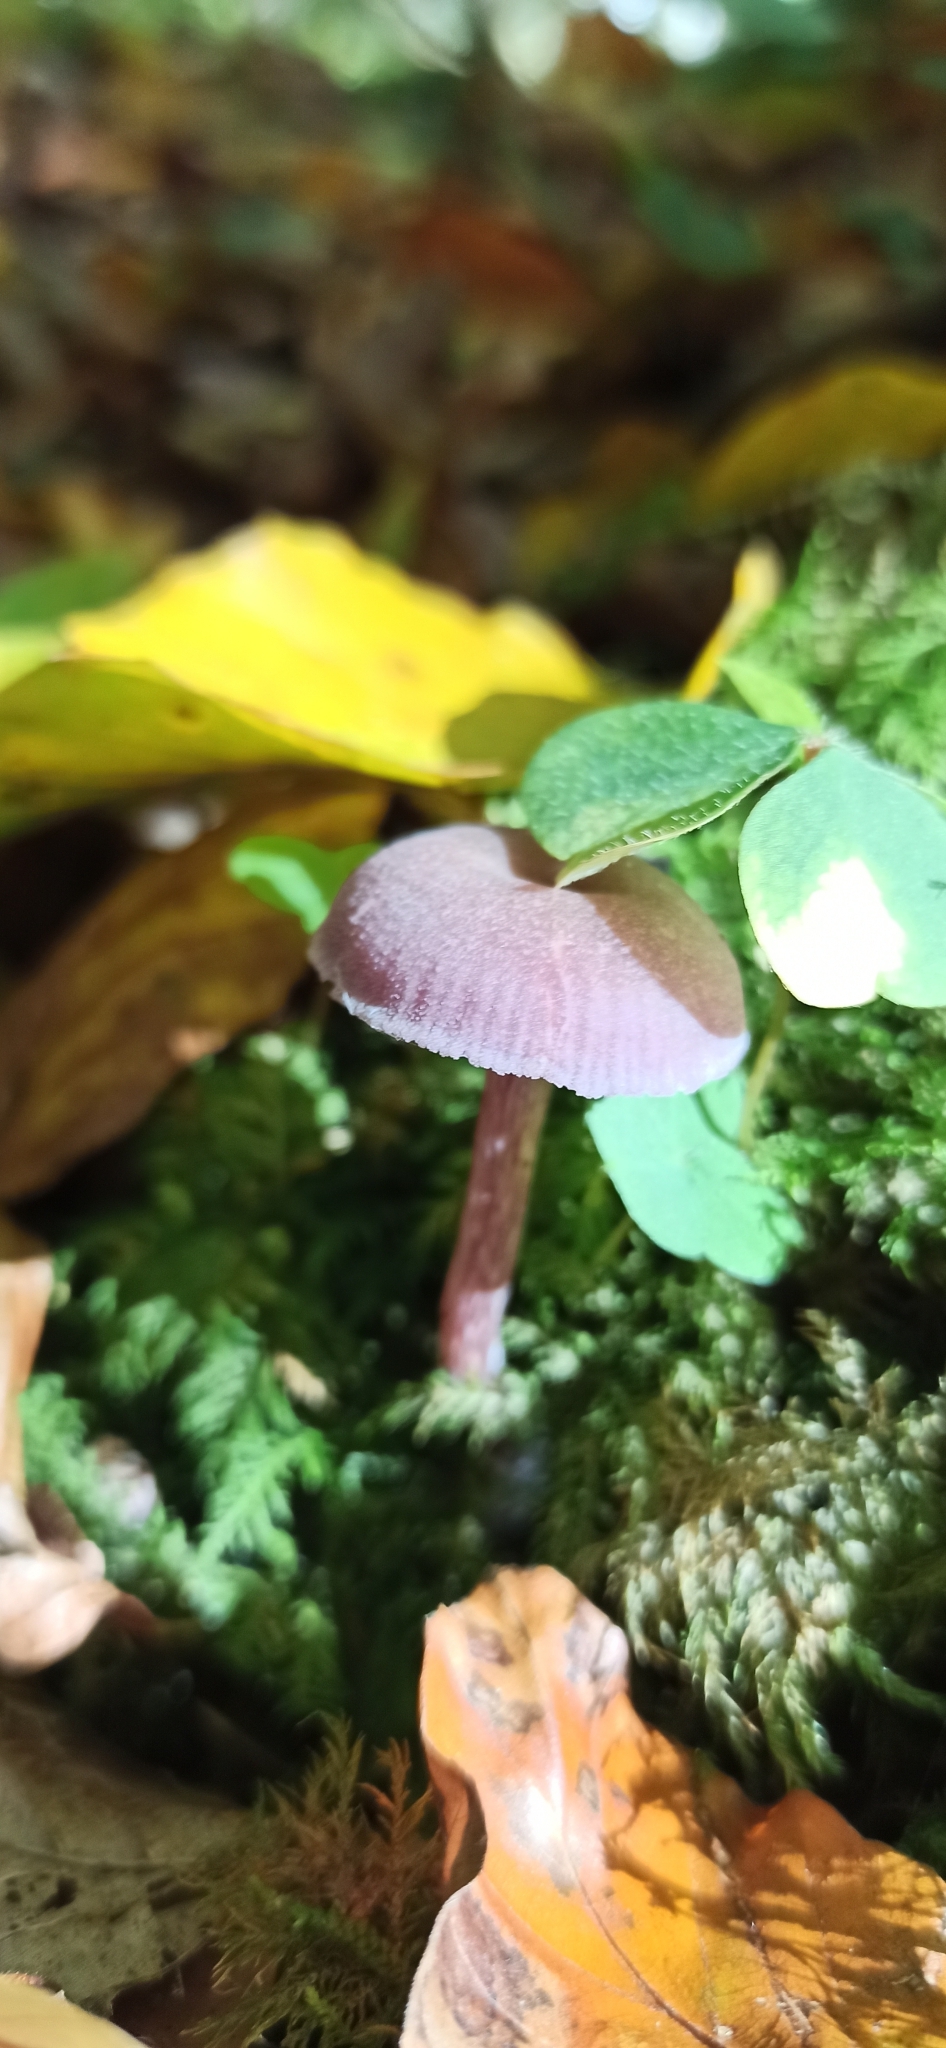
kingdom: Fungi
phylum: Basidiomycota
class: Agaricomycetes
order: Agaricales
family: Hydnangiaceae
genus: Laccaria
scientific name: Laccaria amethystina
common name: Amethyst deceiver
